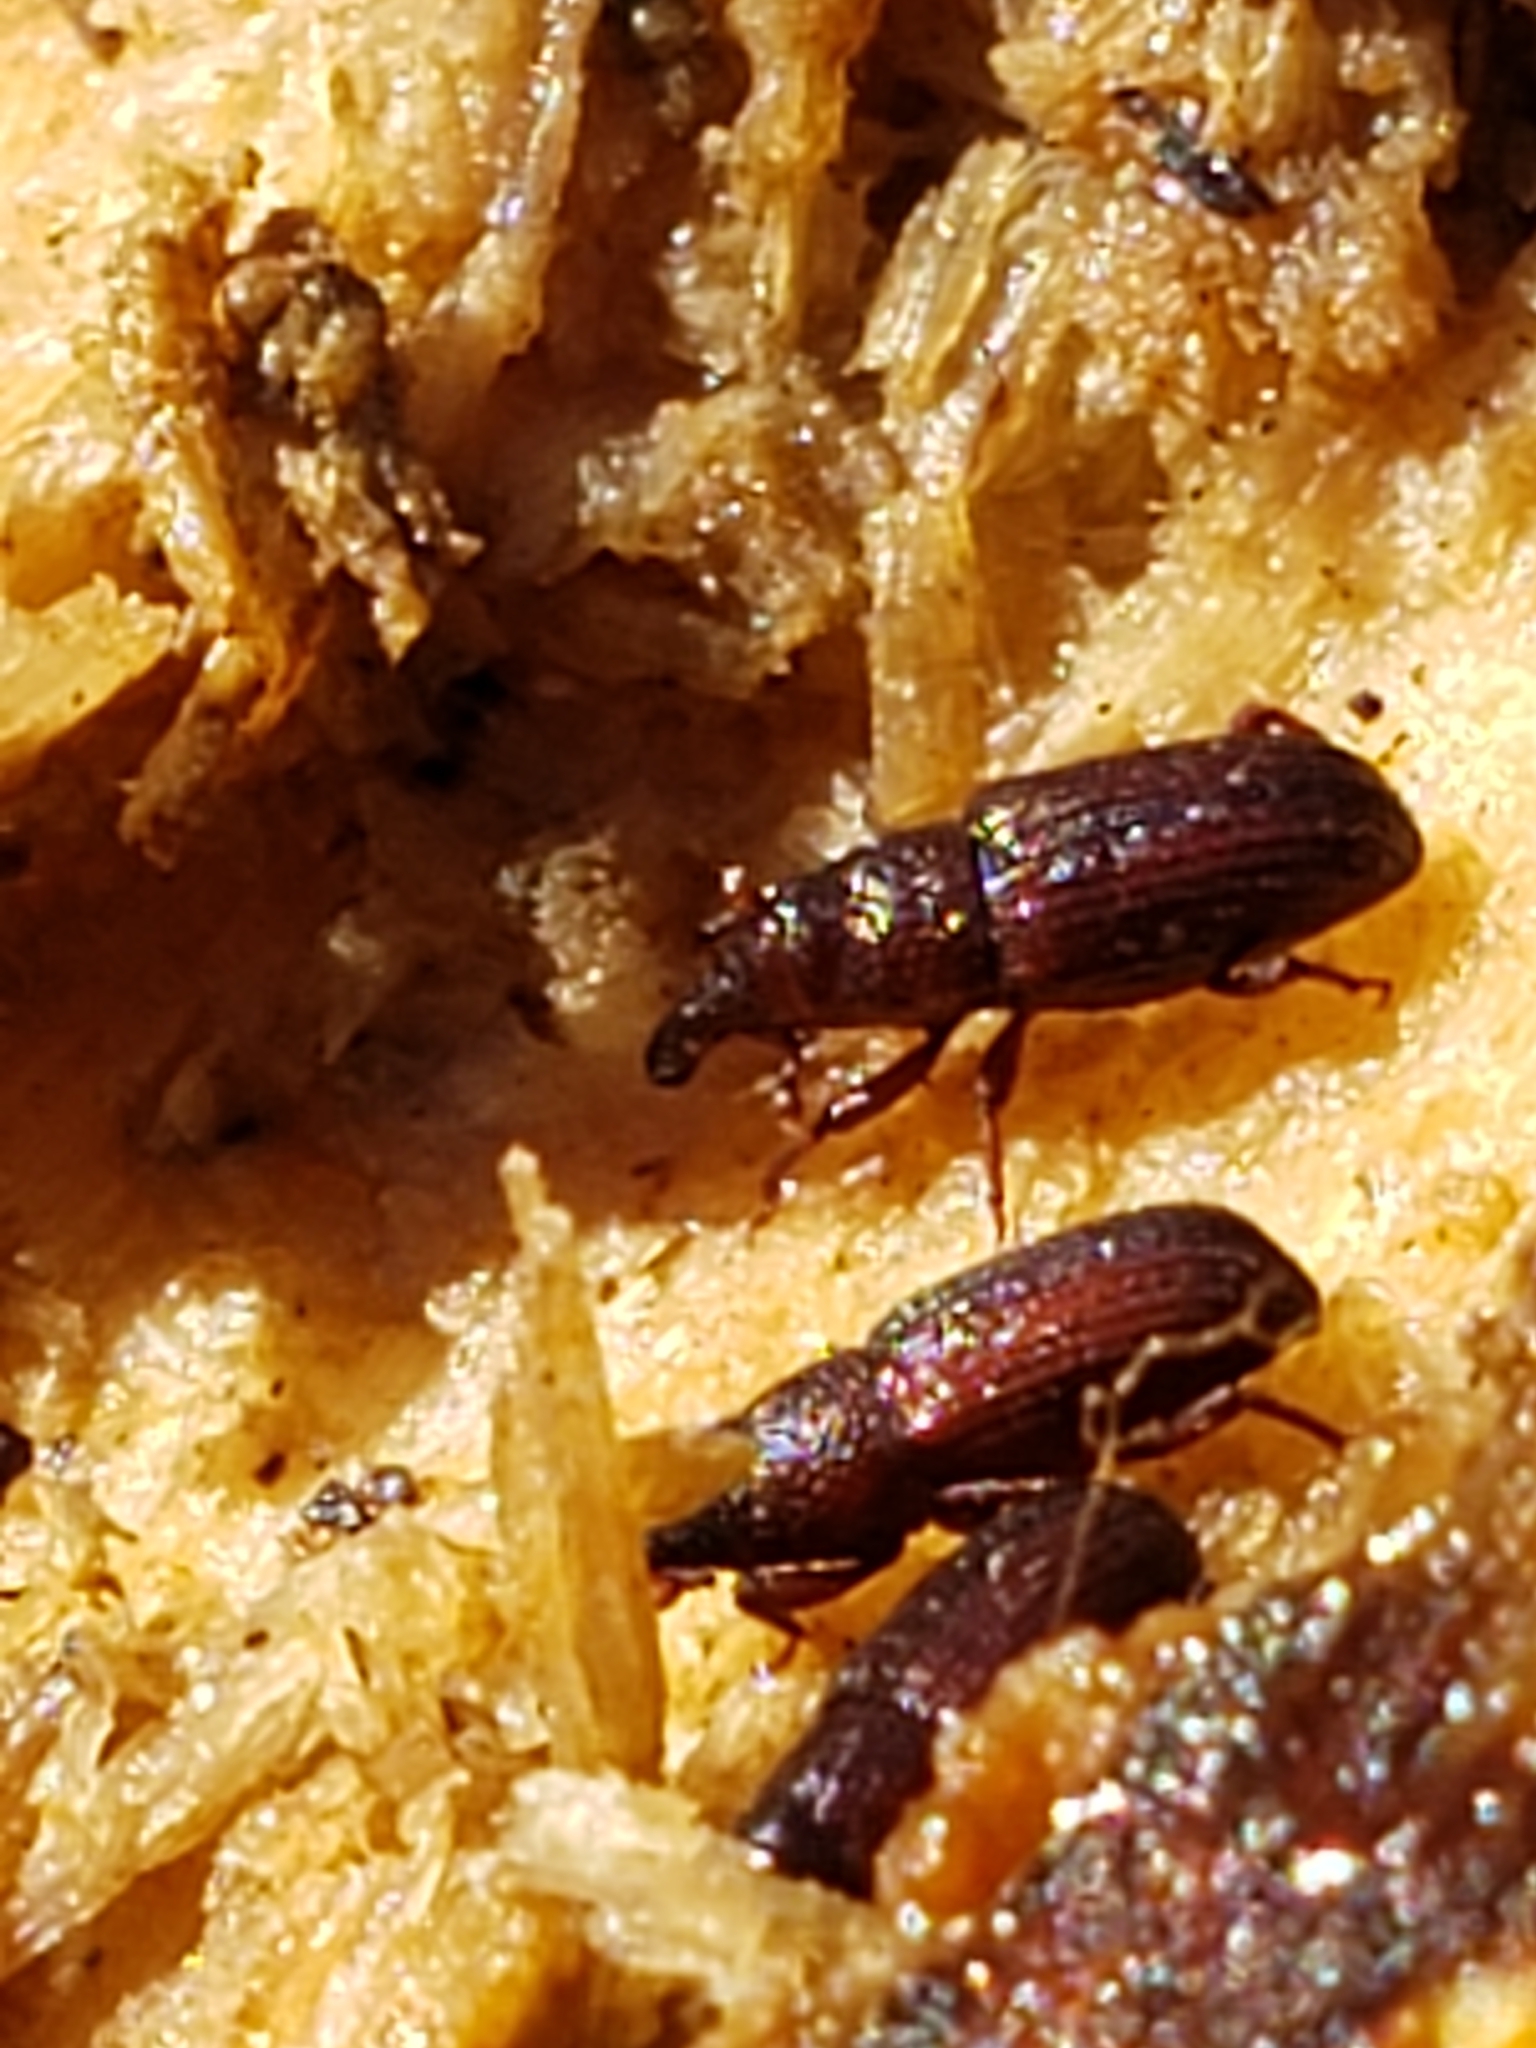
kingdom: Animalia
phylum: Arthropoda
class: Insecta
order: Coleoptera
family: Dryophthoridae
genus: Dryophthorus
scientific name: Dryophthorus americanus
